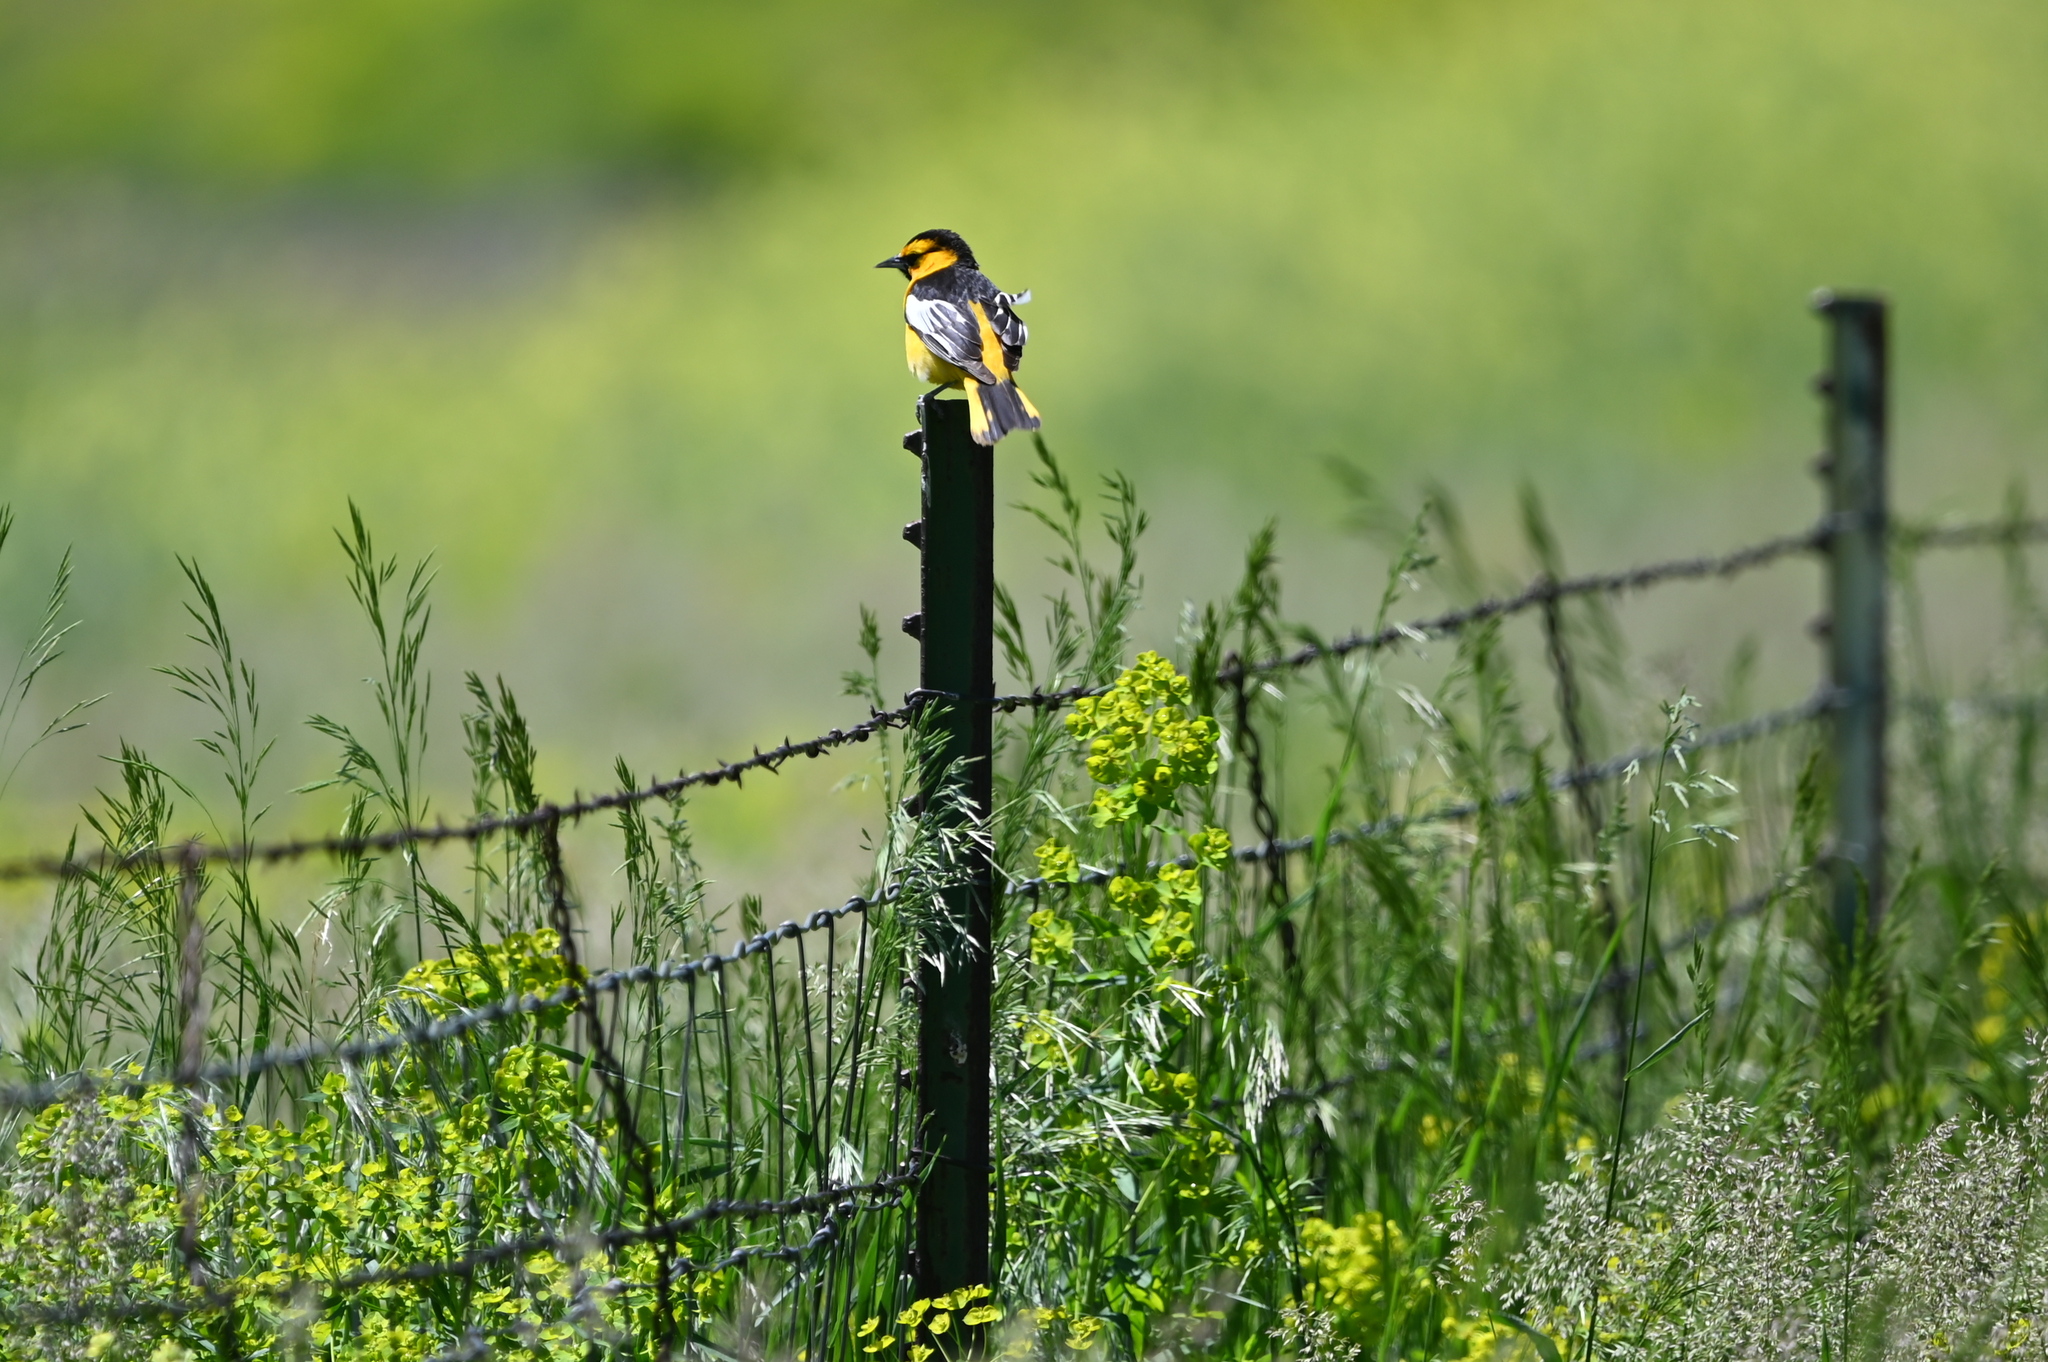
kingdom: Animalia
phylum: Chordata
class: Aves
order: Passeriformes
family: Icteridae
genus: Icterus
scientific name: Icterus bullockii
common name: Bullock's oriole
